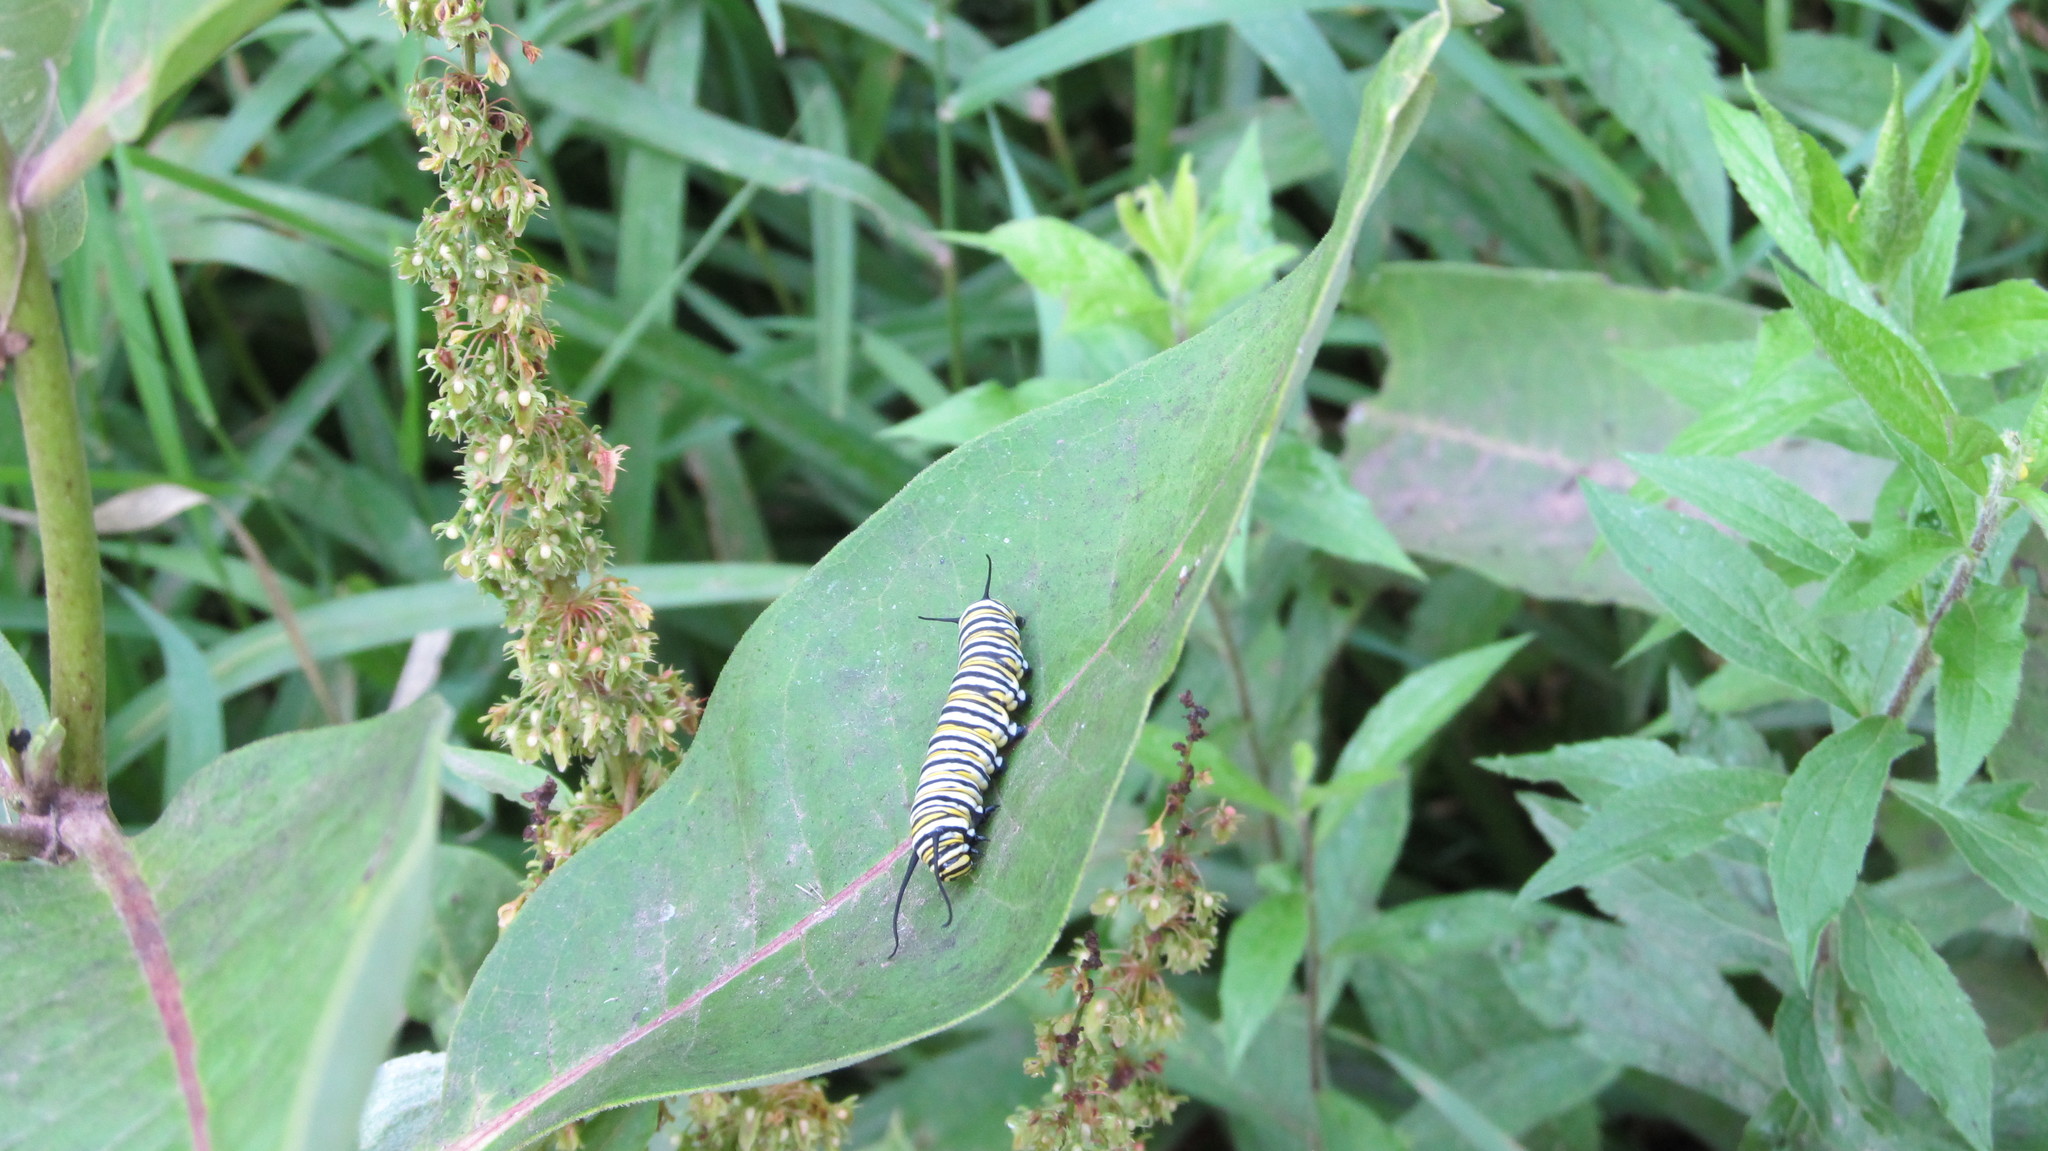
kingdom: Animalia
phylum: Arthropoda
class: Insecta
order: Lepidoptera
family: Nymphalidae
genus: Danaus
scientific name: Danaus plexippus
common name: Monarch
